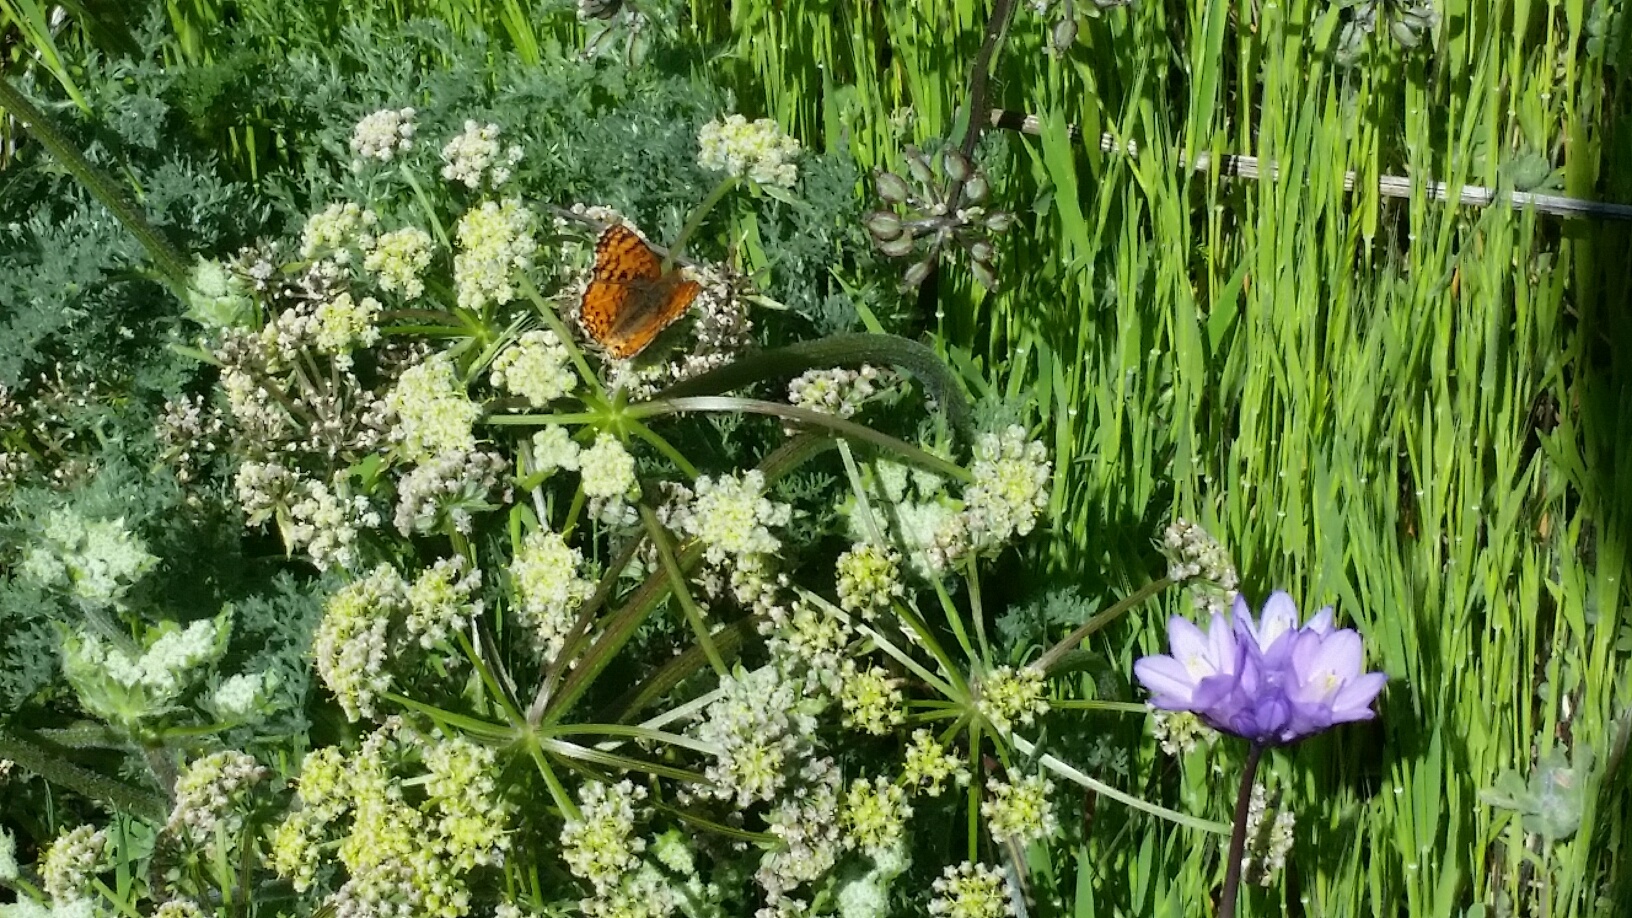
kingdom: Animalia
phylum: Arthropoda
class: Insecta
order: Lepidoptera
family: Nymphalidae
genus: Eresia
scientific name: Eresia aveyrona
